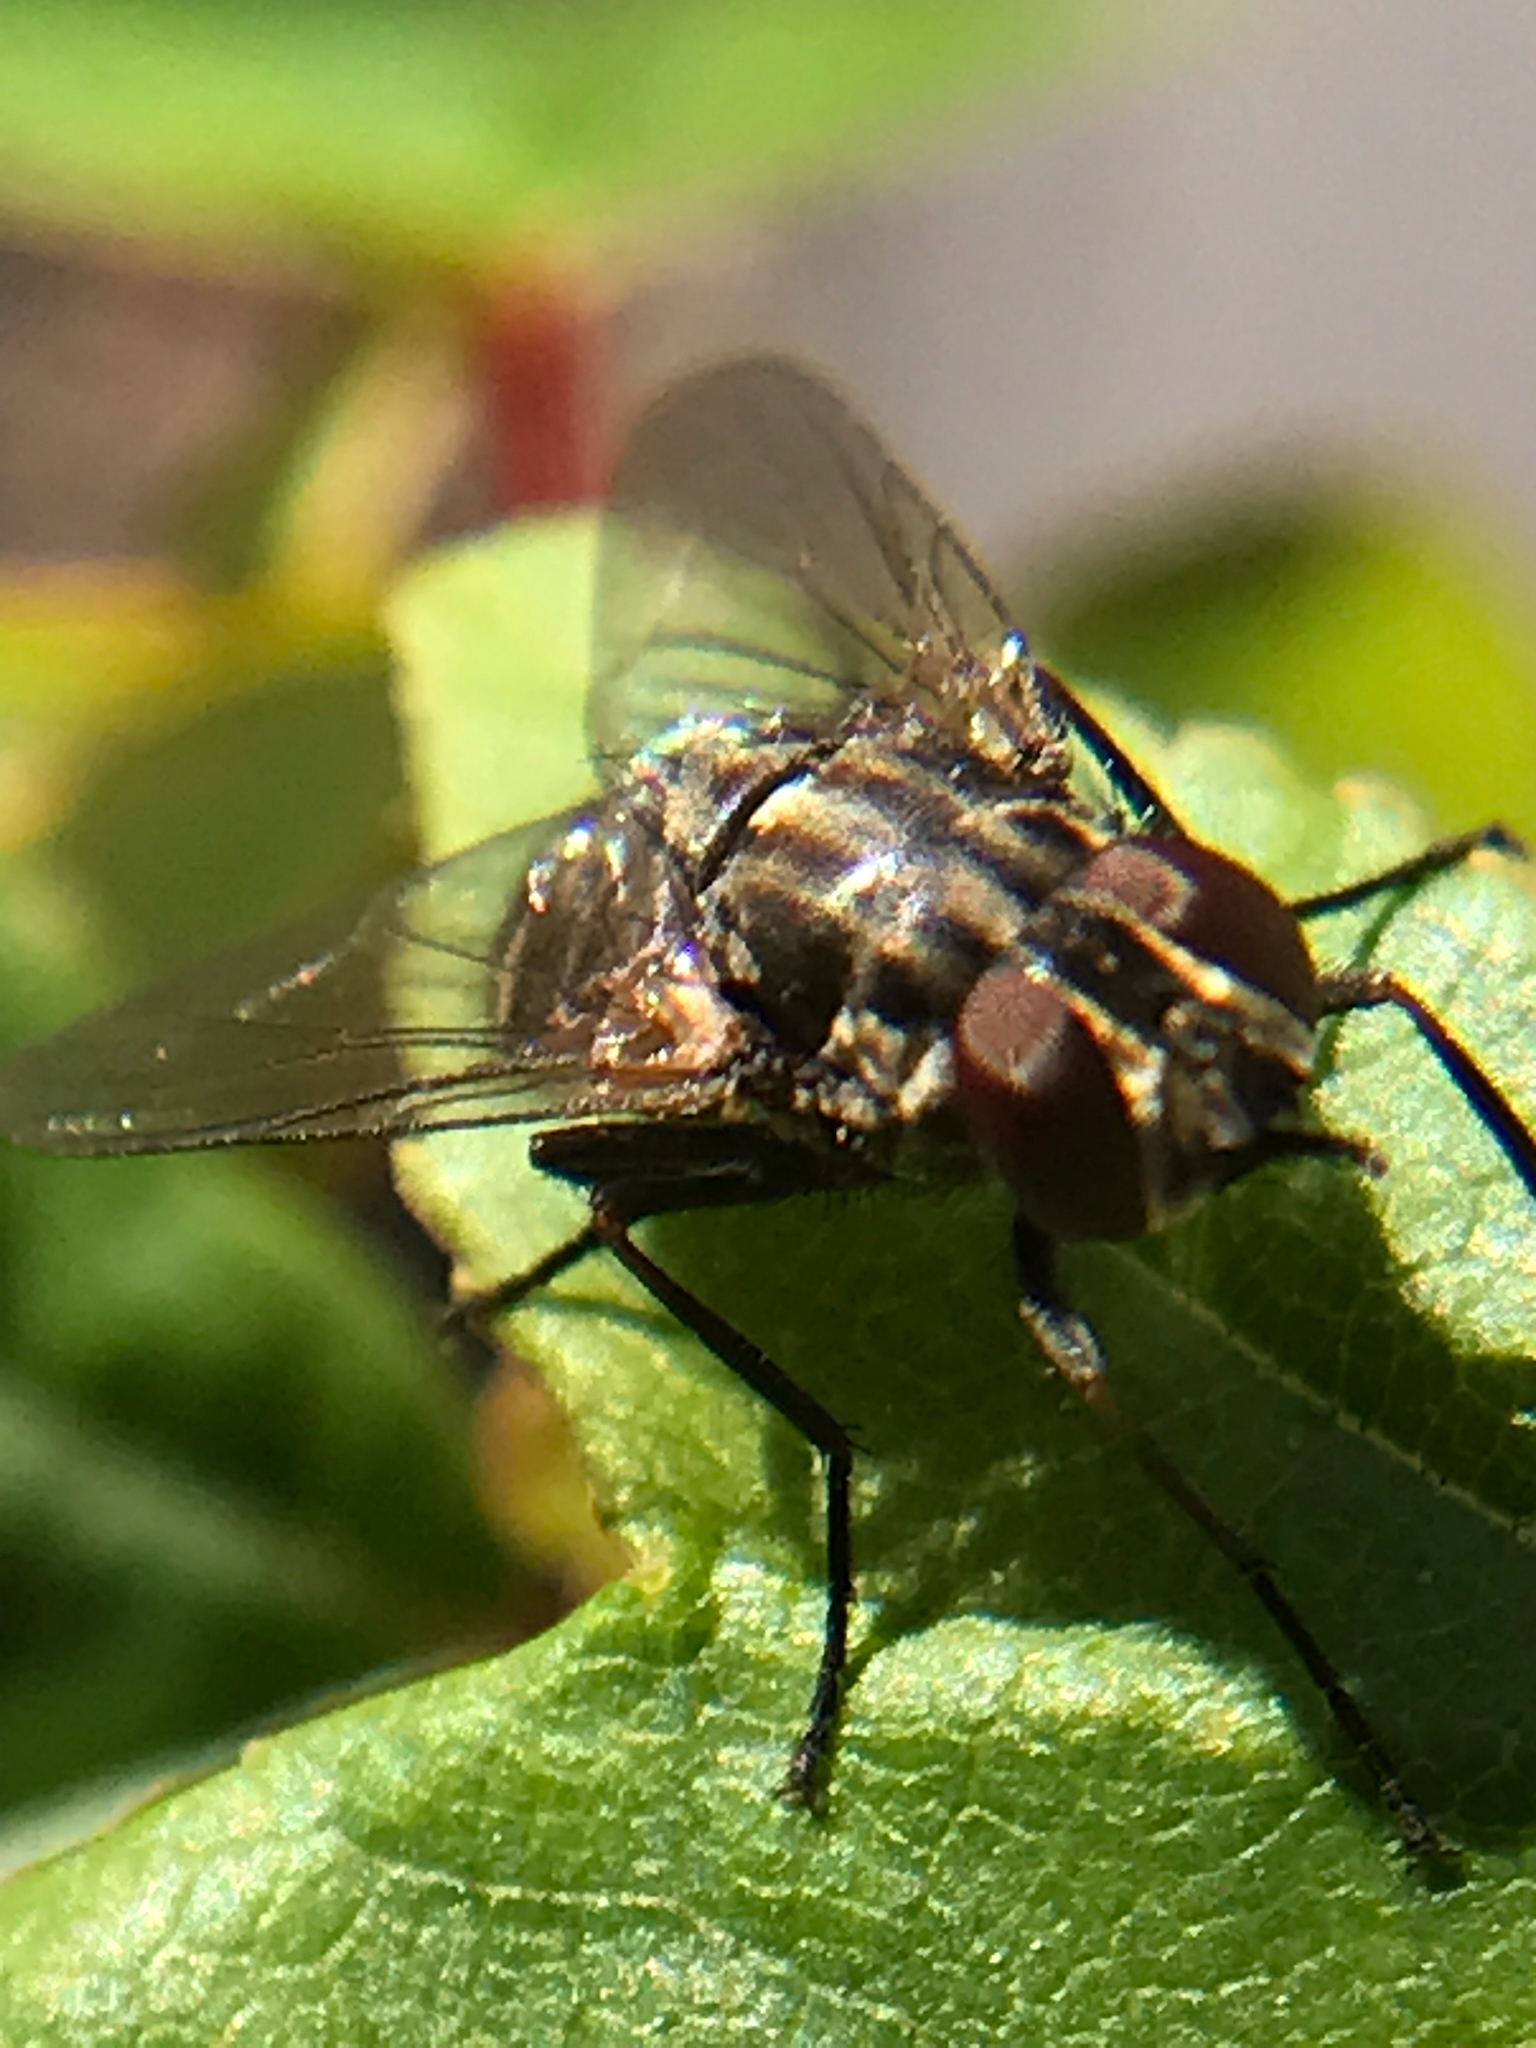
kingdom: Animalia
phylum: Arthropoda
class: Insecta
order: Diptera
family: Muscidae
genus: Stomoxys
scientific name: Stomoxys calcitrans
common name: Stable fly
